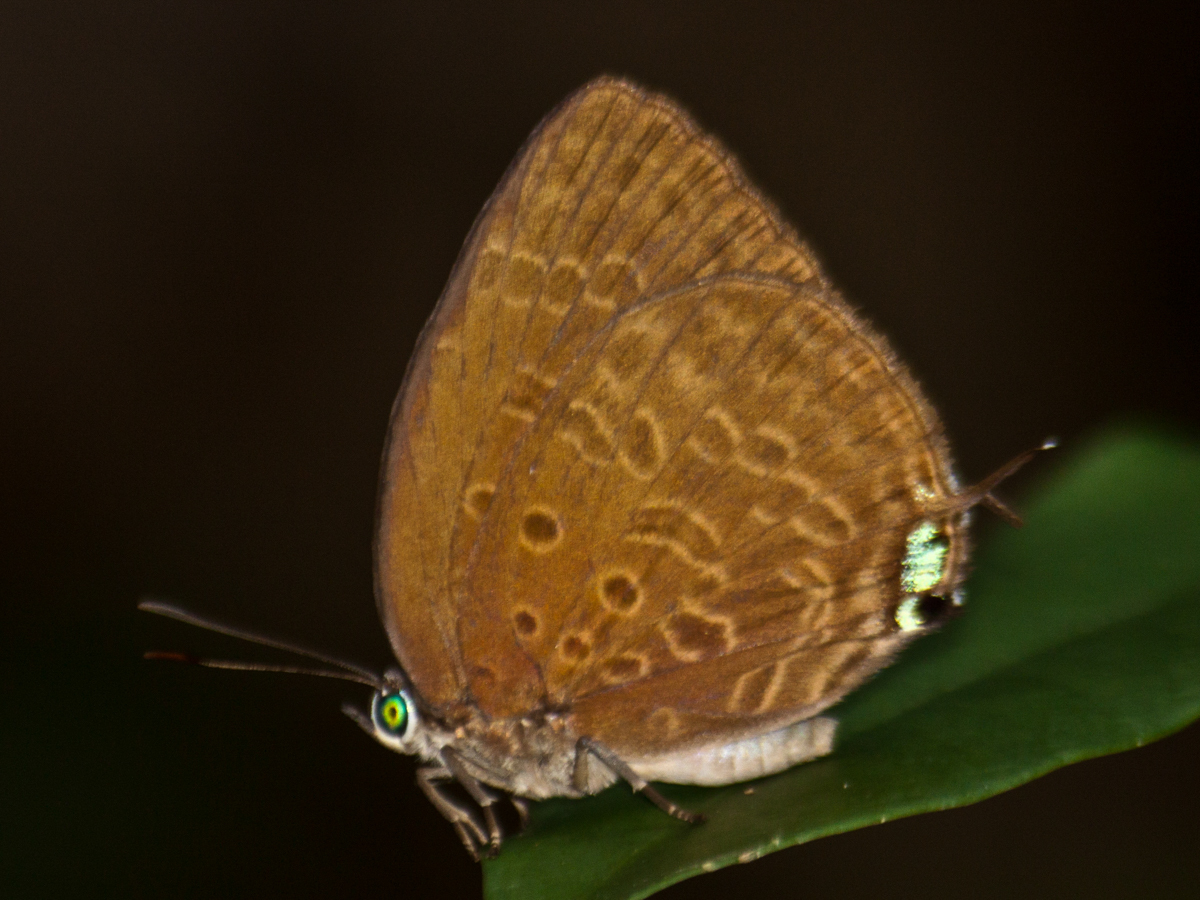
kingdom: Animalia
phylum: Arthropoda
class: Insecta
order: Lepidoptera
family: Lycaenidae
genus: Arhopala
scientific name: Arhopala atosia
